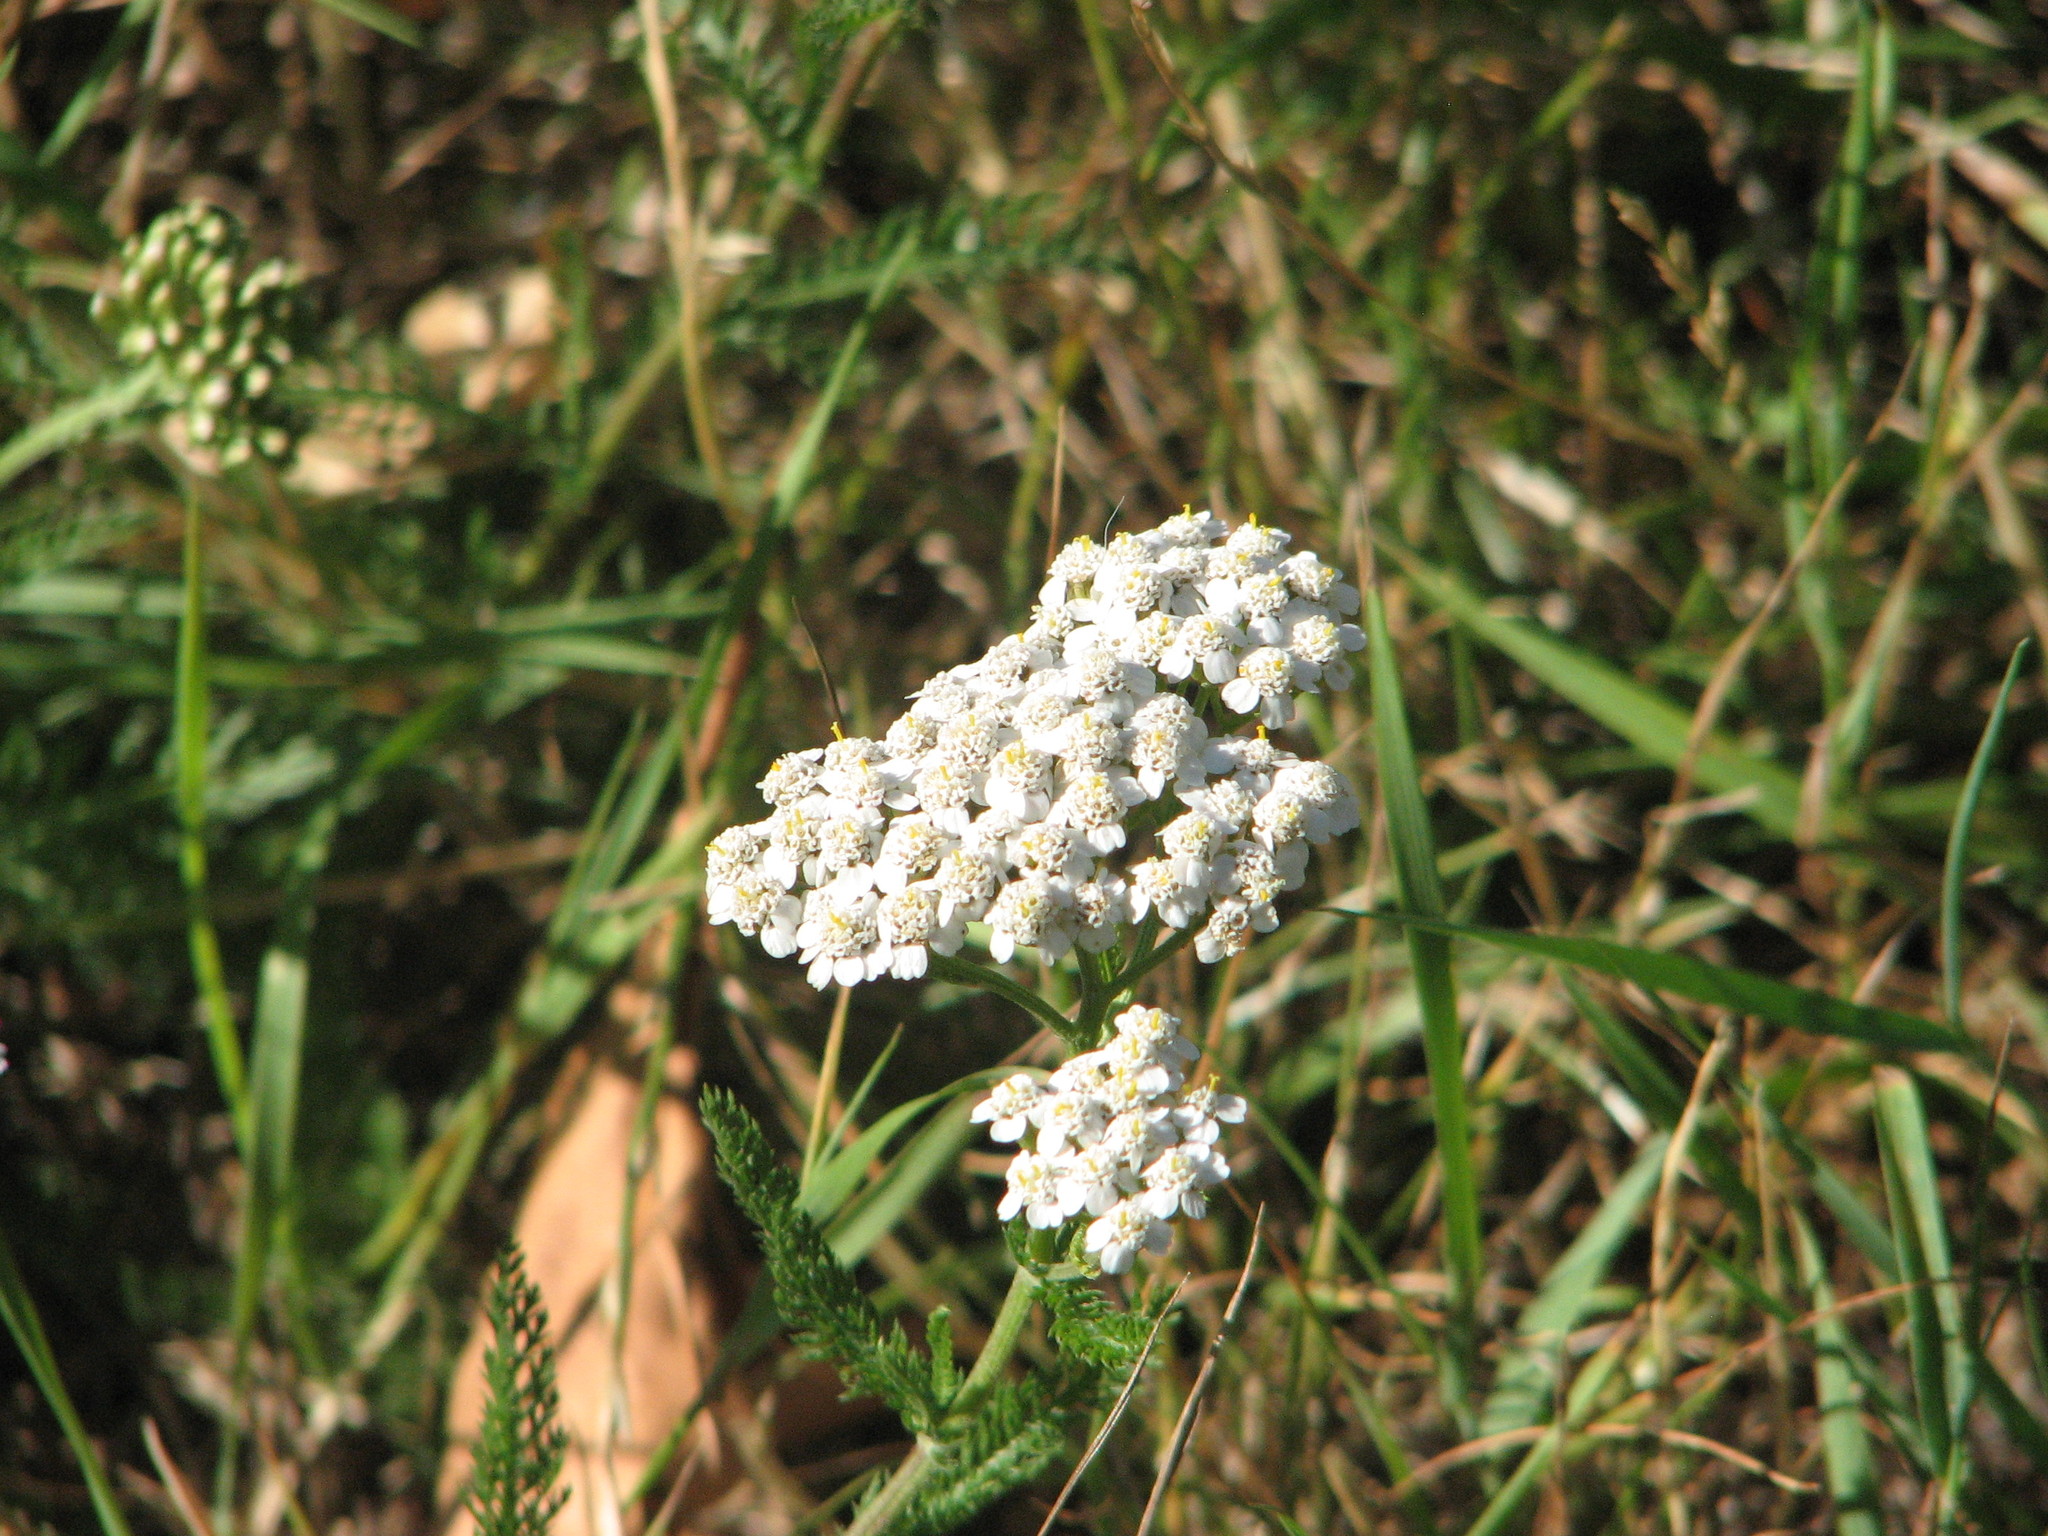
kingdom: Plantae
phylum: Tracheophyta
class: Magnoliopsida
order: Asterales
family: Asteraceae
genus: Achillea
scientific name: Achillea millefolium
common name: Yarrow
